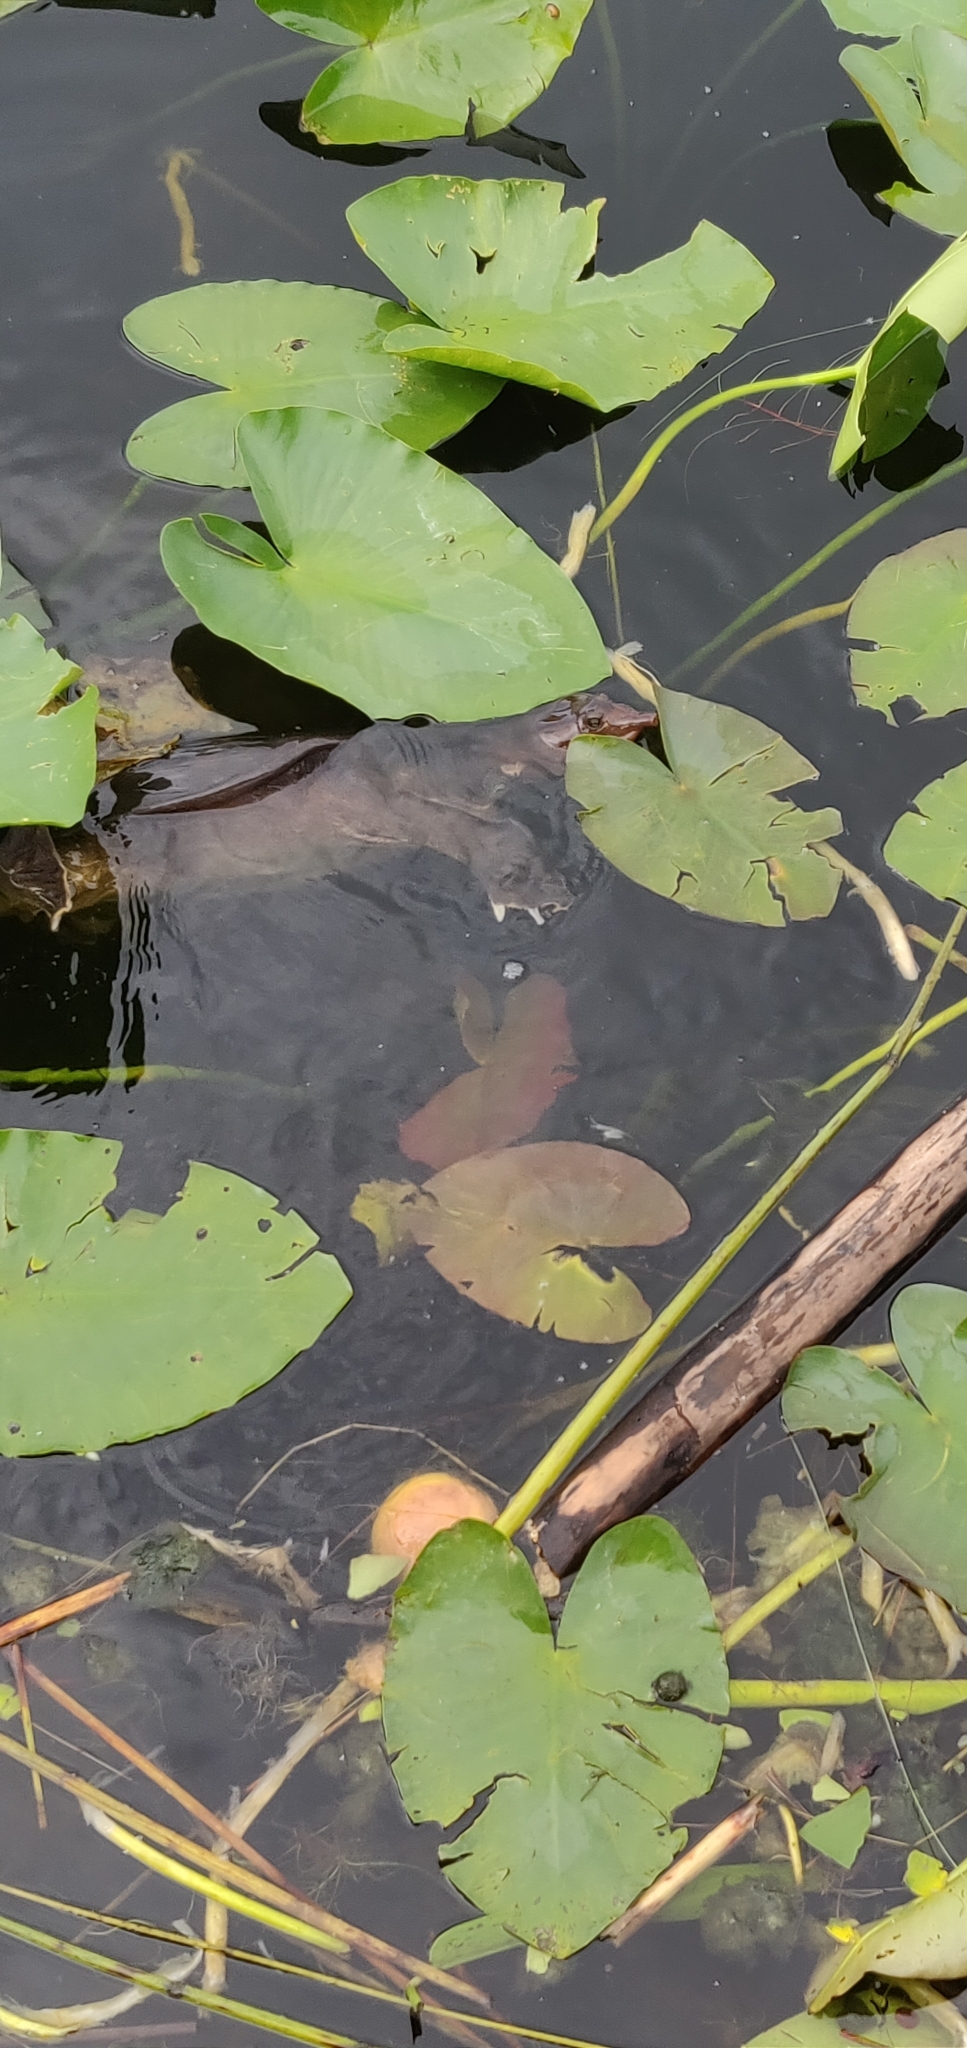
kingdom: Animalia
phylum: Chordata
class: Testudines
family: Trionychidae
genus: Apalone
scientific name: Apalone ferox
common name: Florida softshell turtle
